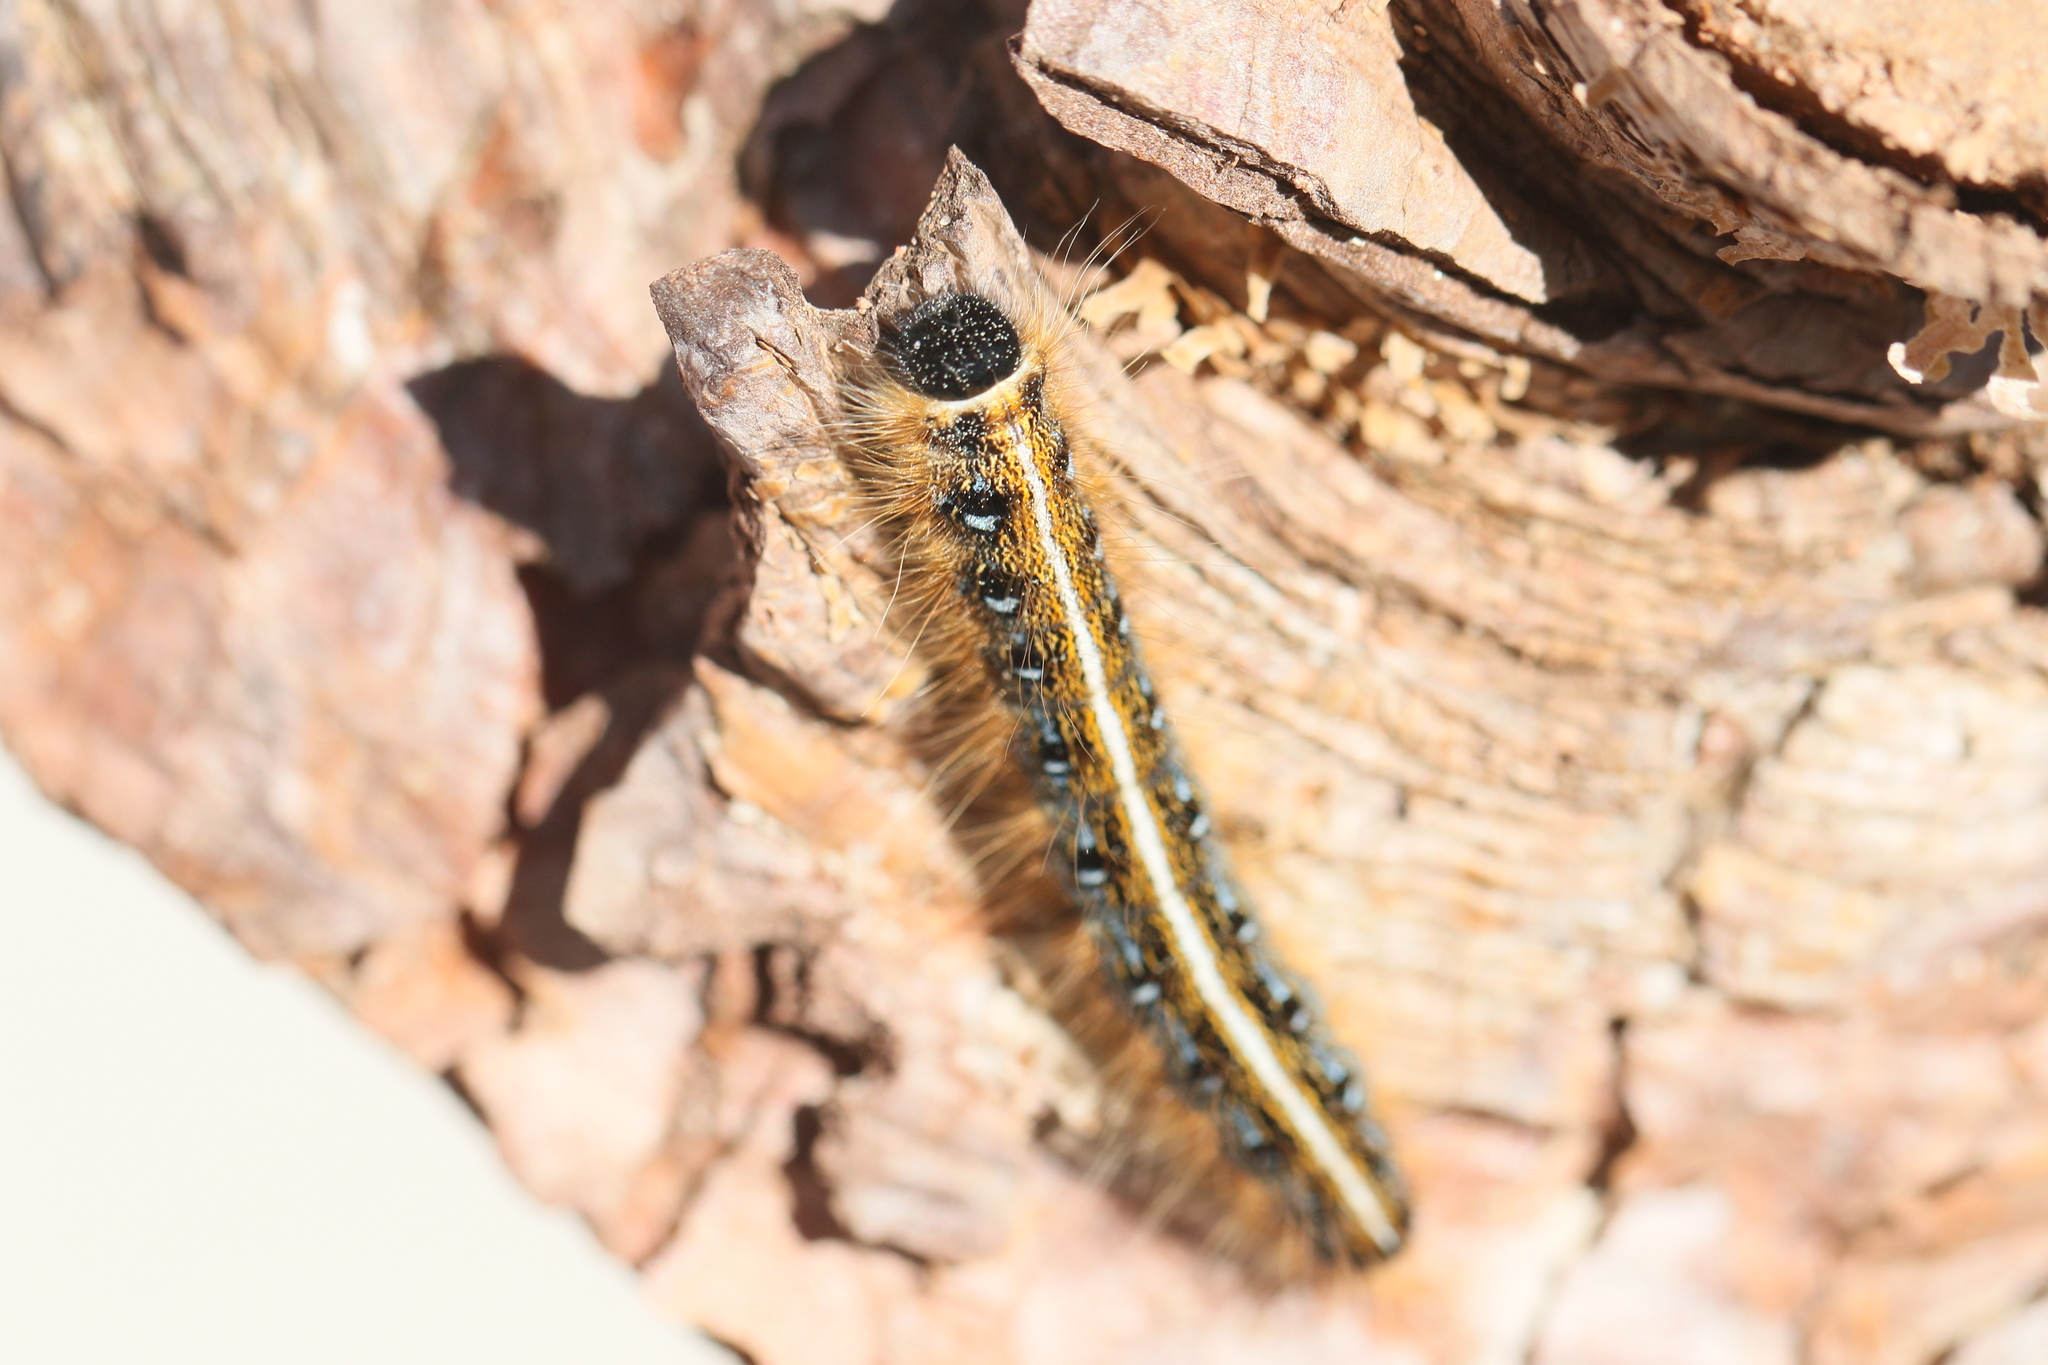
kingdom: Animalia
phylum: Arthropoda
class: Insecta
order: Lepidoptera
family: Lasiocampidae
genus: Malacosoma
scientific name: Malacosoma americana
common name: Eastern tent caterpillar moth
